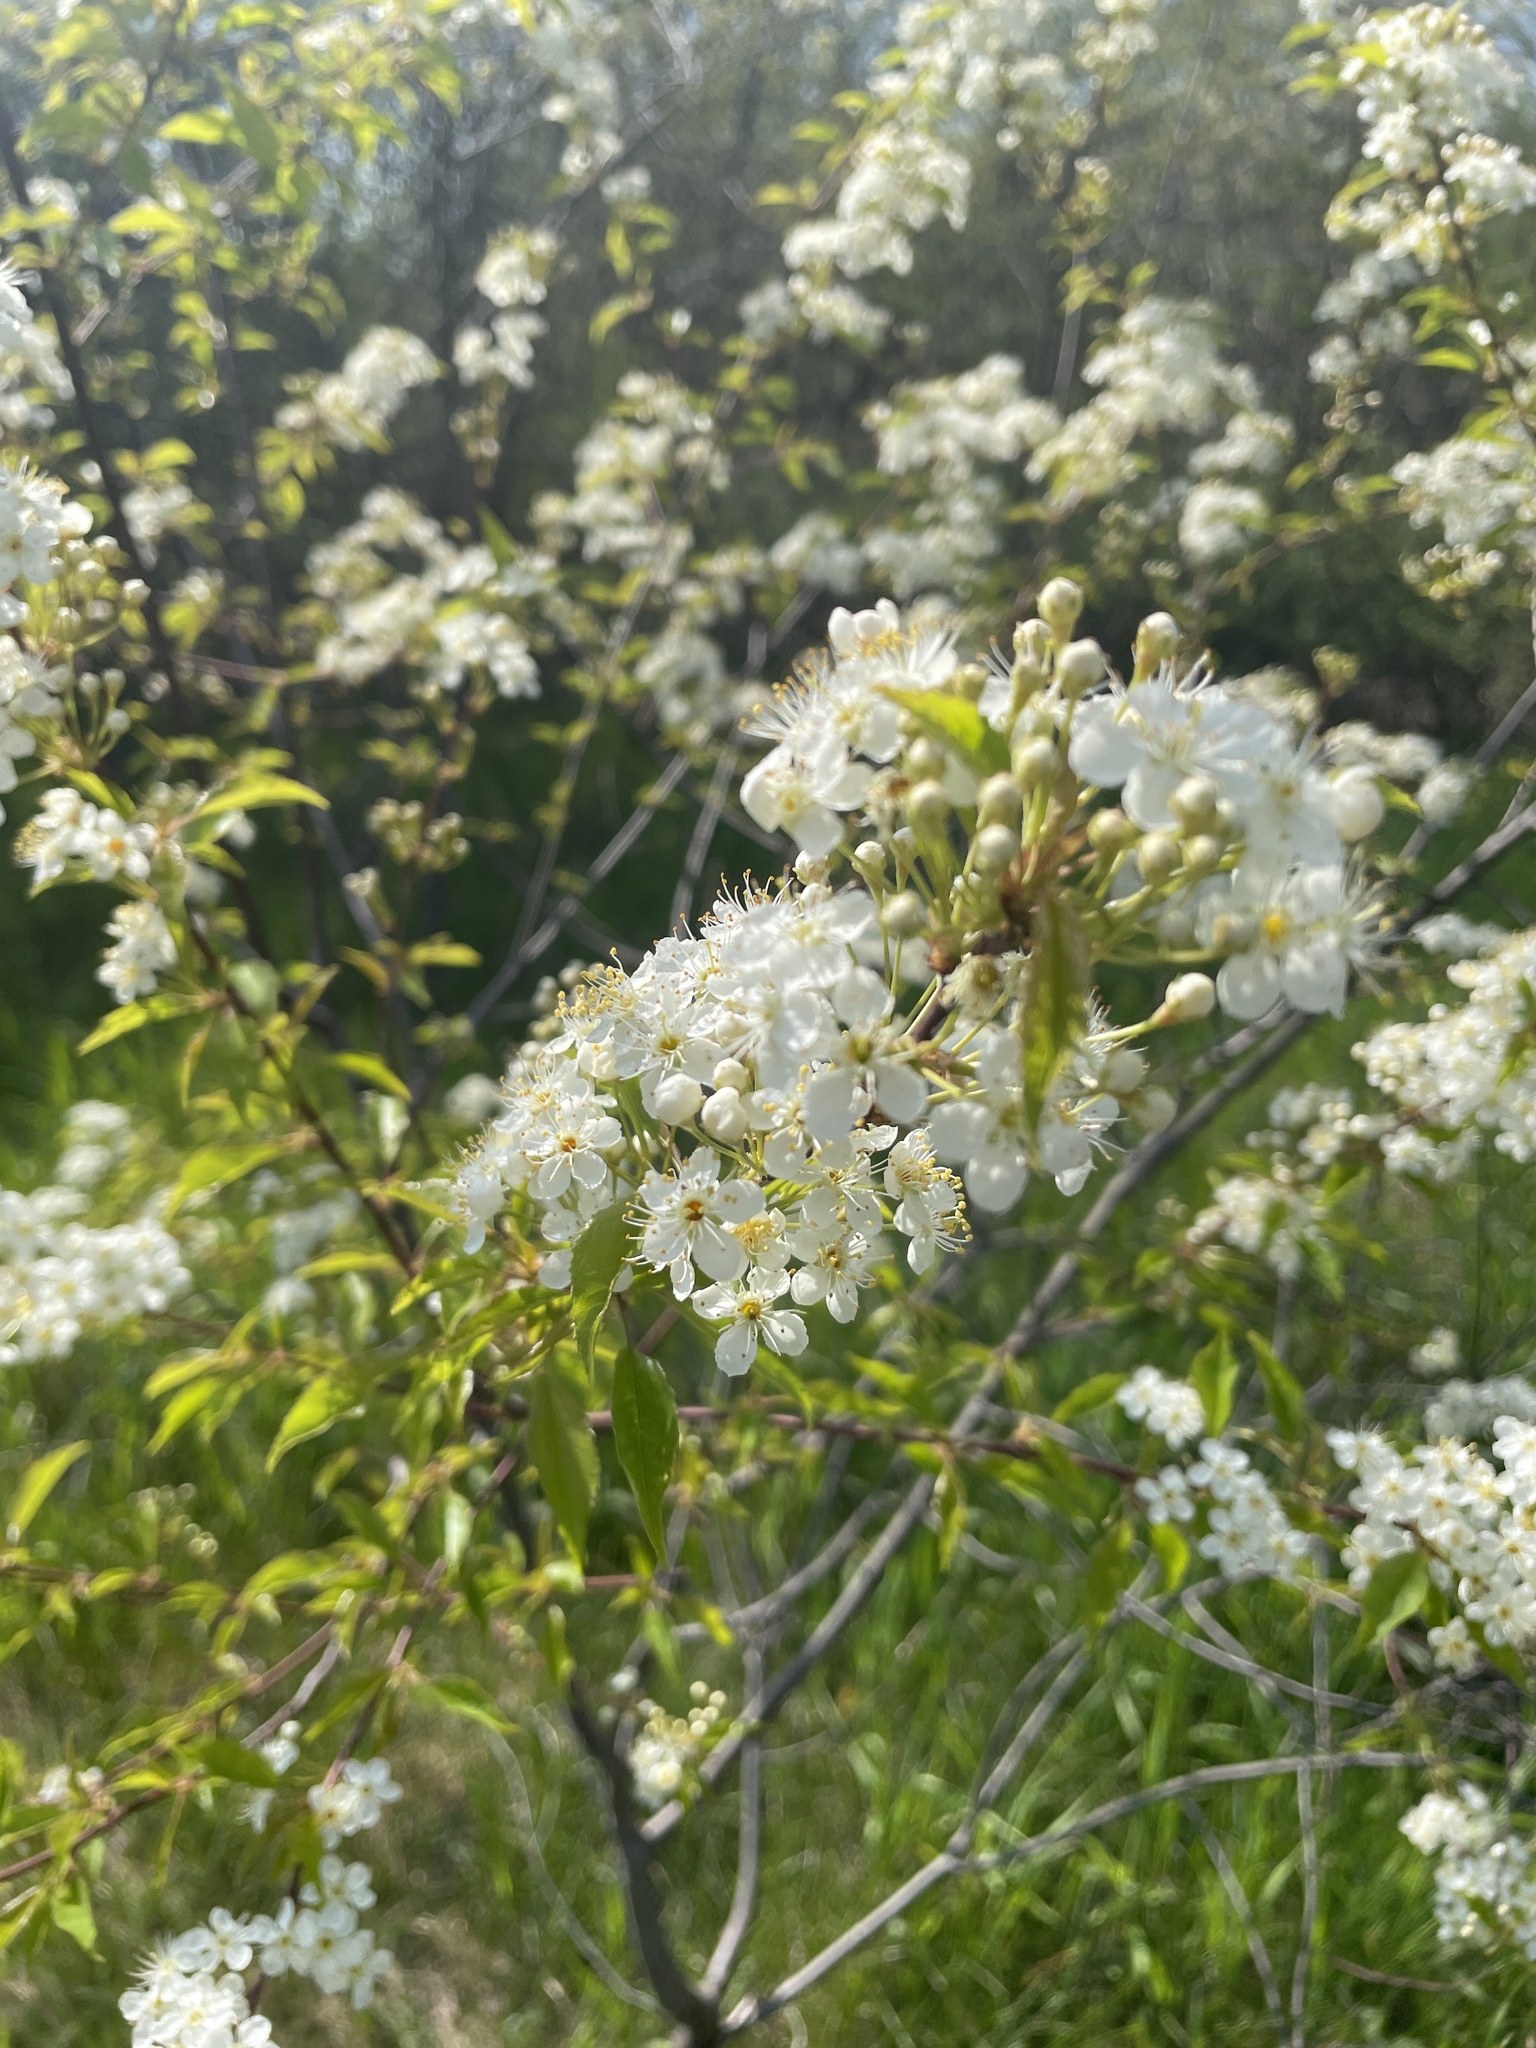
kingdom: Plantae
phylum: Tracheophyta
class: Magnoliopsida
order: Rosales
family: Rosaceae
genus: Prunus
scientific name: Prunus americana
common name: American plum
